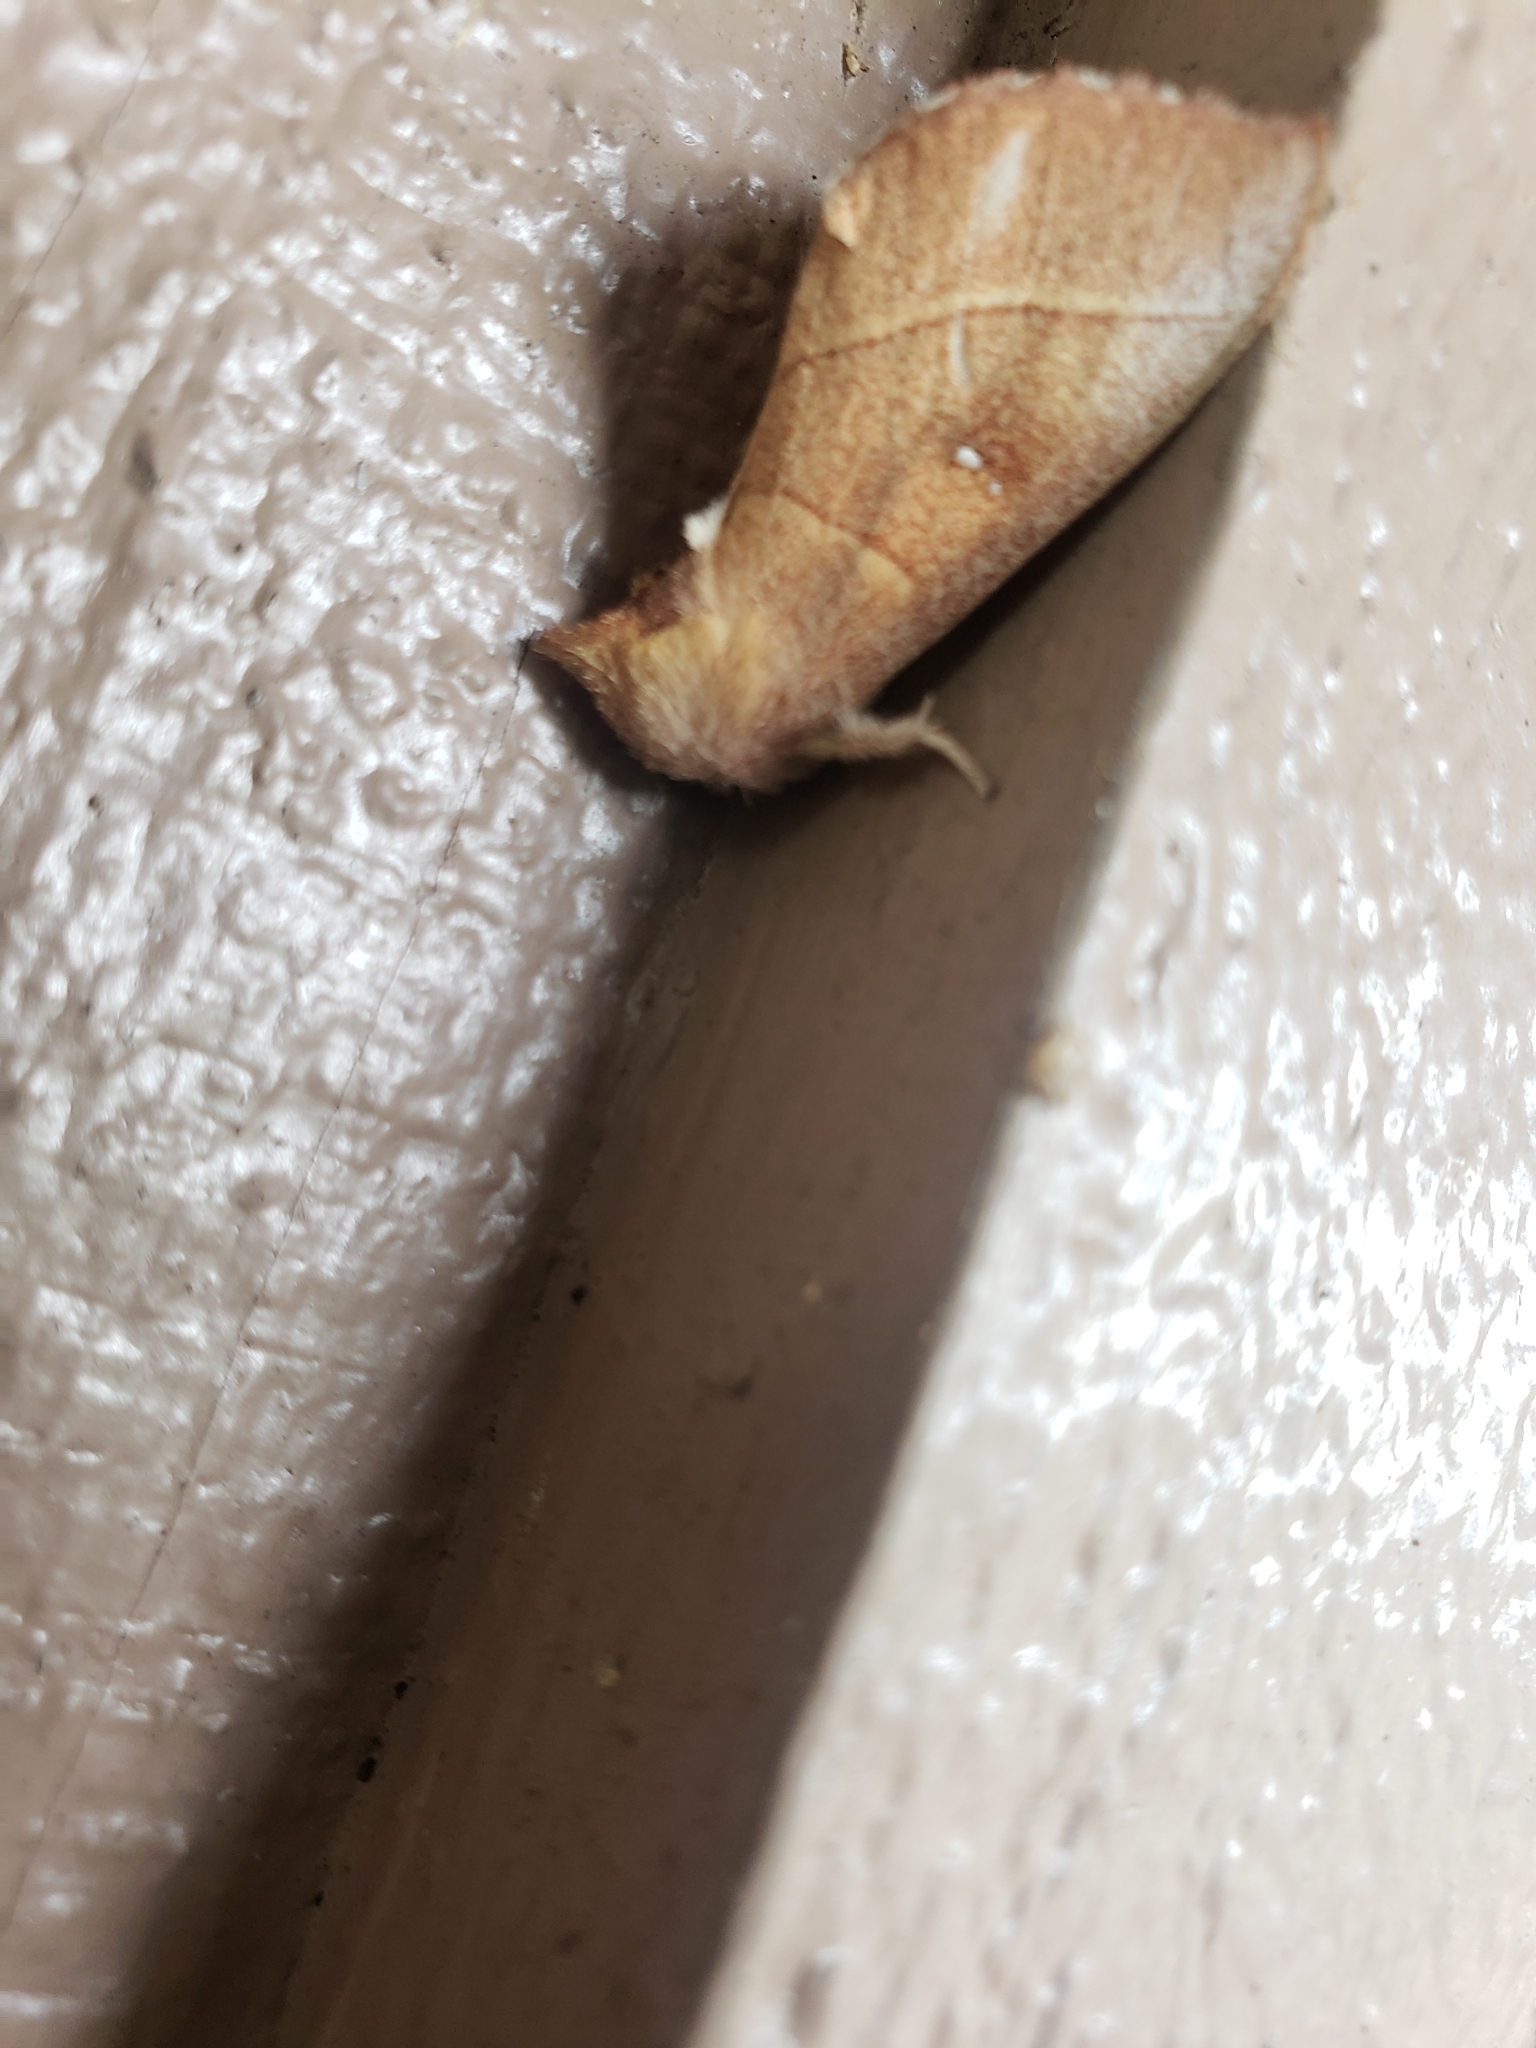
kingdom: Animalia
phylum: Arthropoda
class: Insecta
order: Lepidoptera
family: Notodontidae
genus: Nadata
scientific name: Nadata gibbosa
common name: White-dotted prominent
